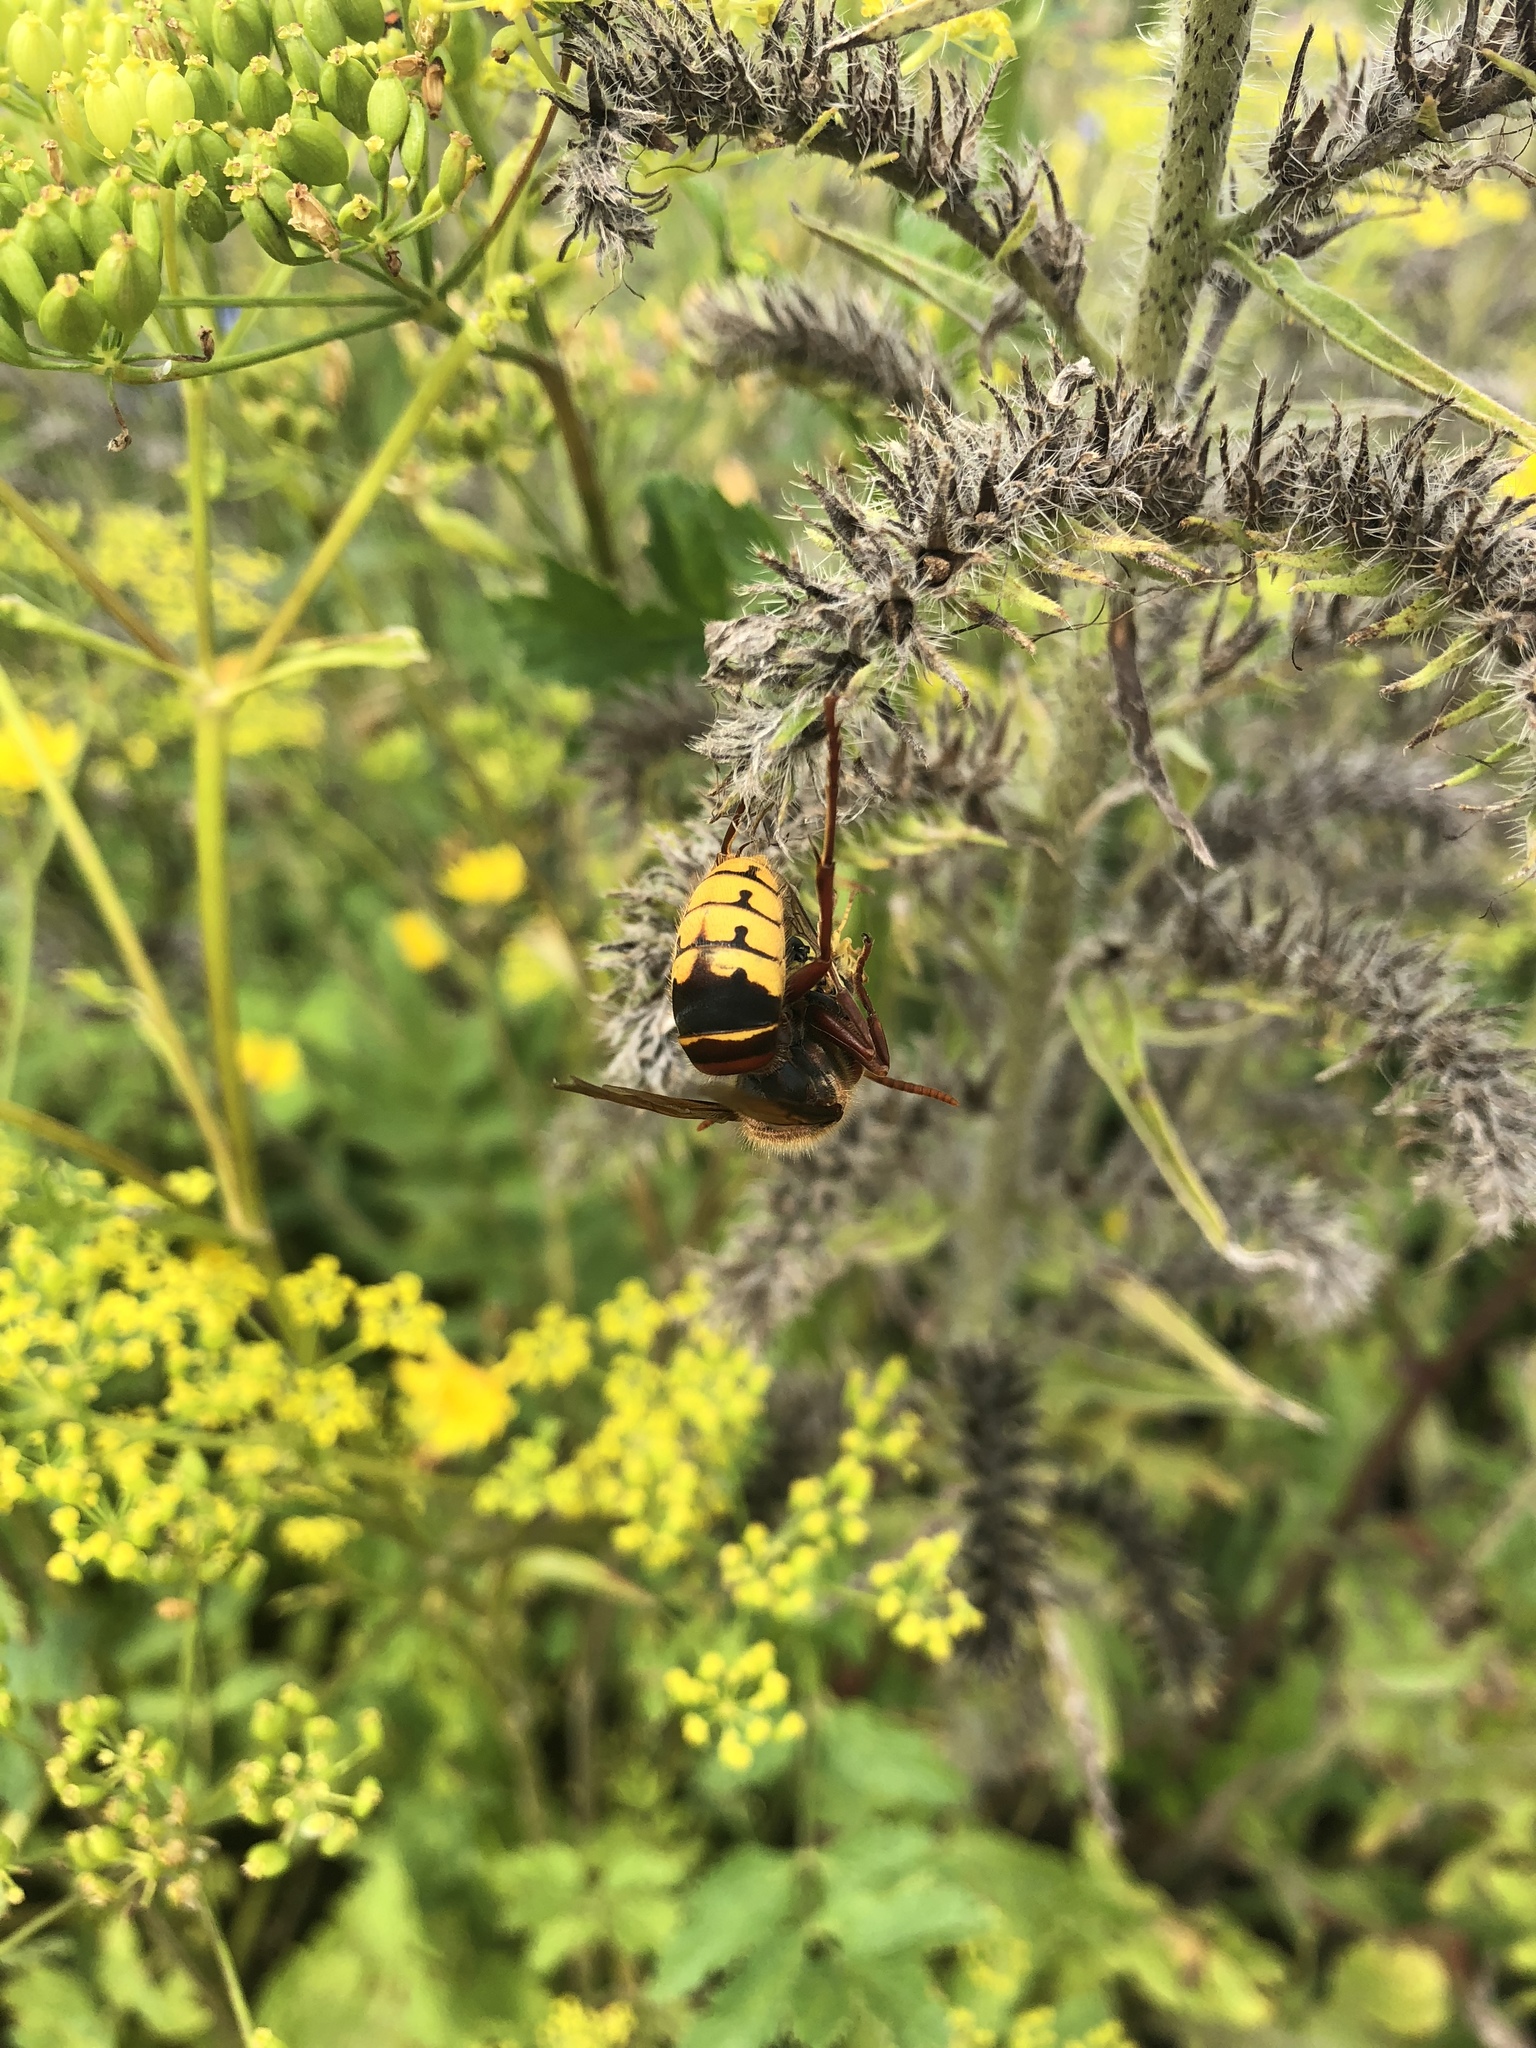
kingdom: Animalia
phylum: Arthropoda
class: Insecta
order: Hymenoptera
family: Vespidae
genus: Vespa
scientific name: Vespa crabro
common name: Hornet
